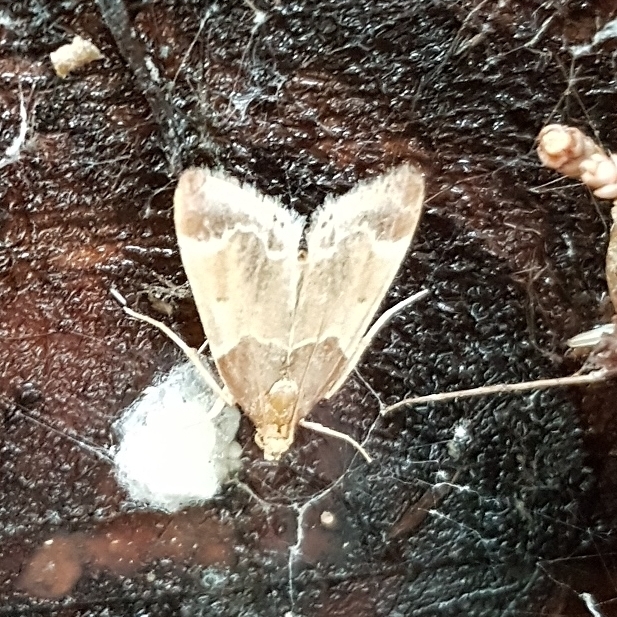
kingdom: Animalia
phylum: Arthropoda
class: Insecta
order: Lepidoptera
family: Pyralidae
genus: Pyralis
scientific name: Pyralis farinalis
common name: Meal moth
